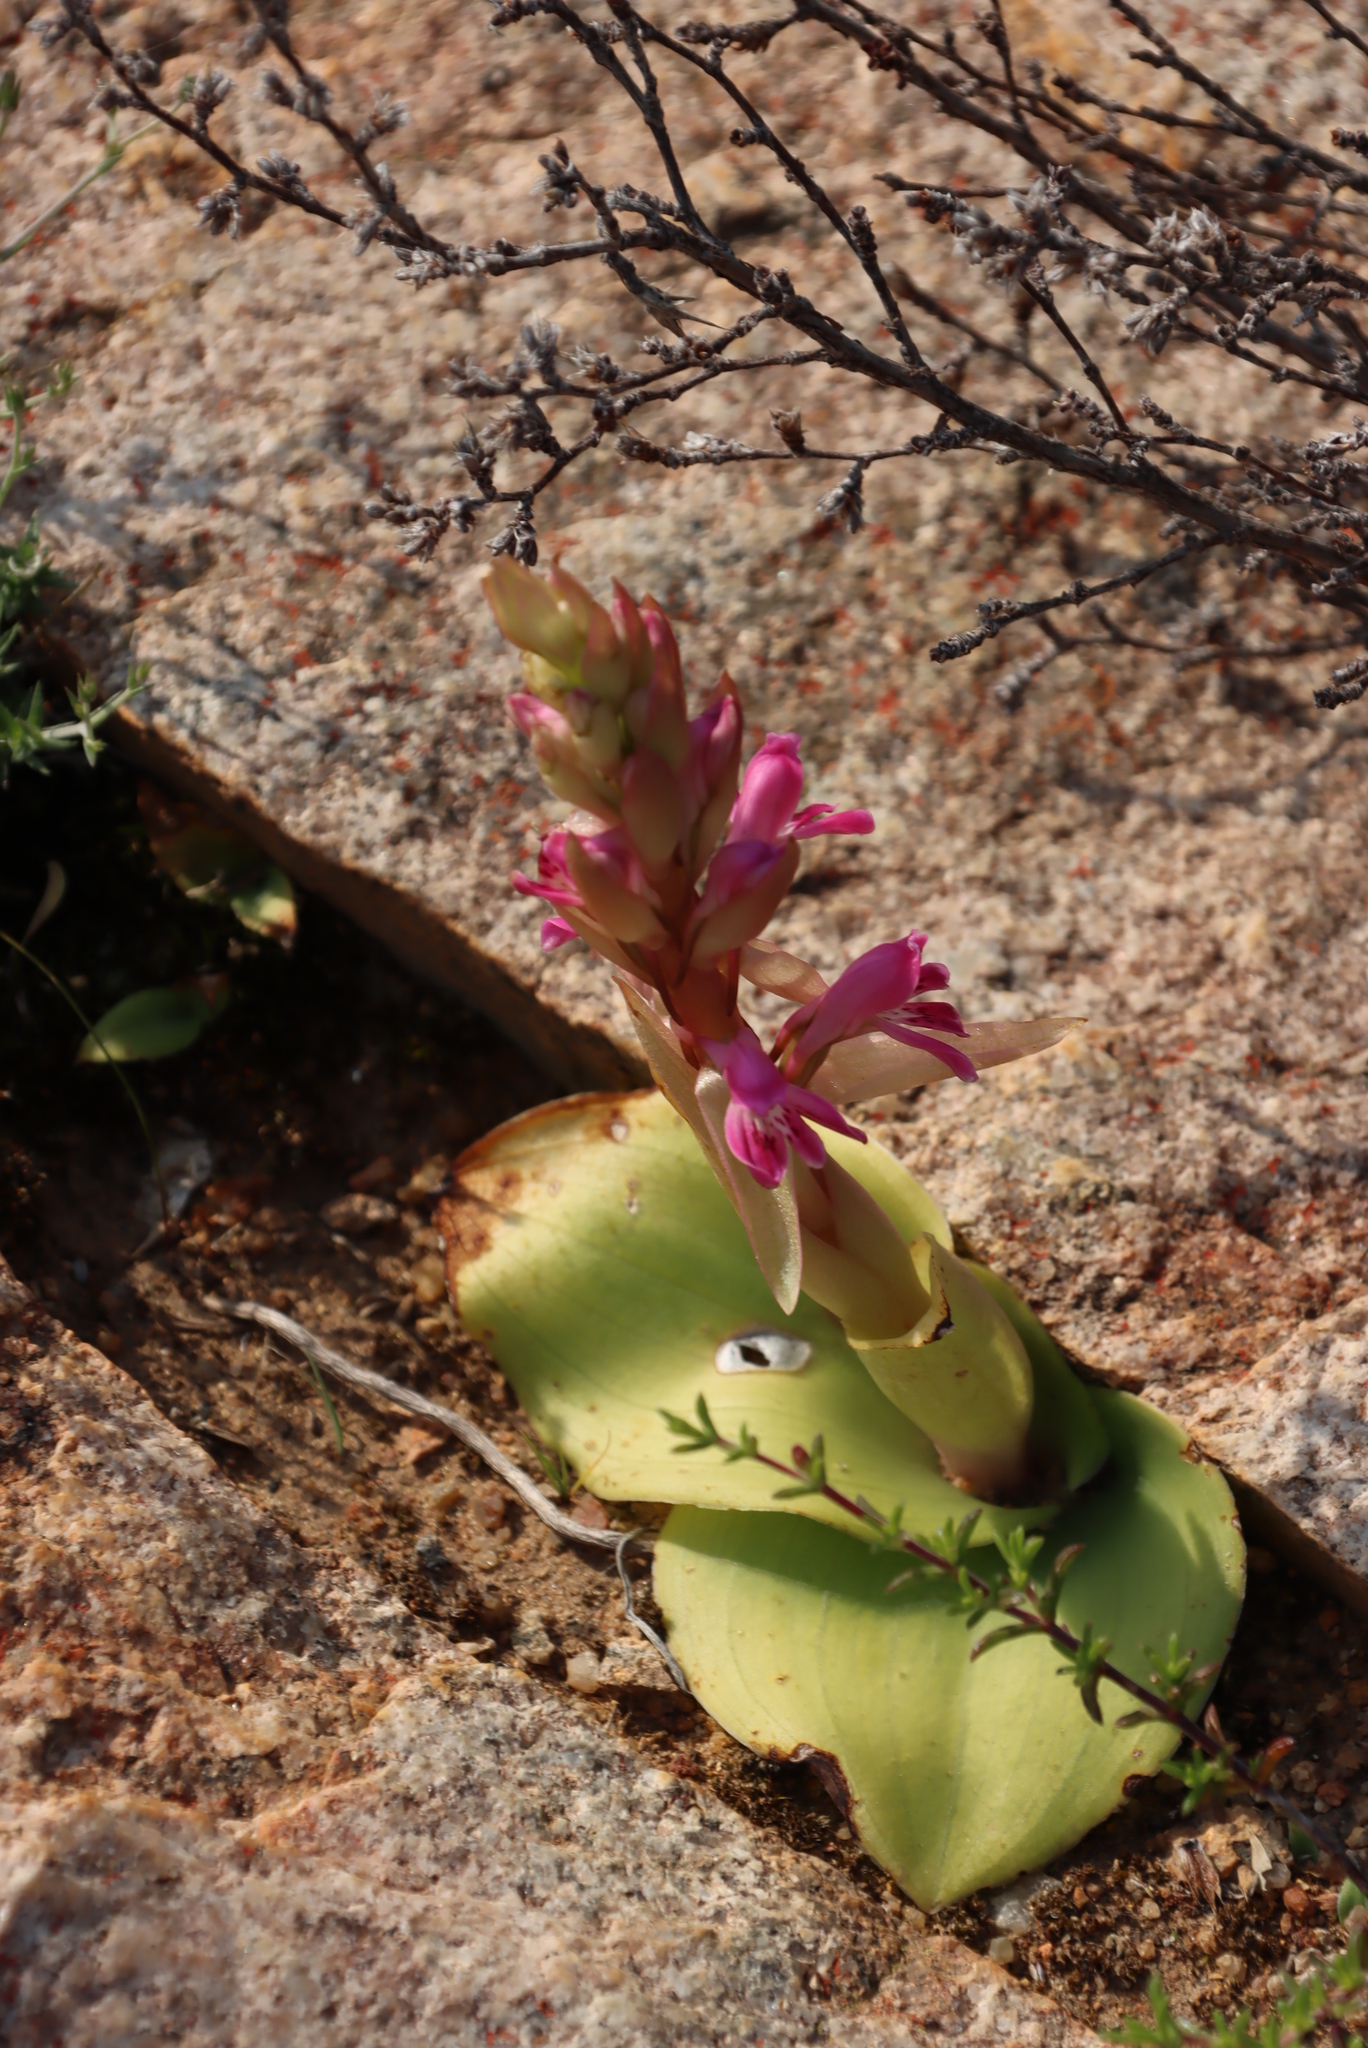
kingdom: Plantae
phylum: Tracheophyta
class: Liliopsida
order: Asparagales
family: Orchidaceae
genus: Satyrium
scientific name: Satyrium erectum
